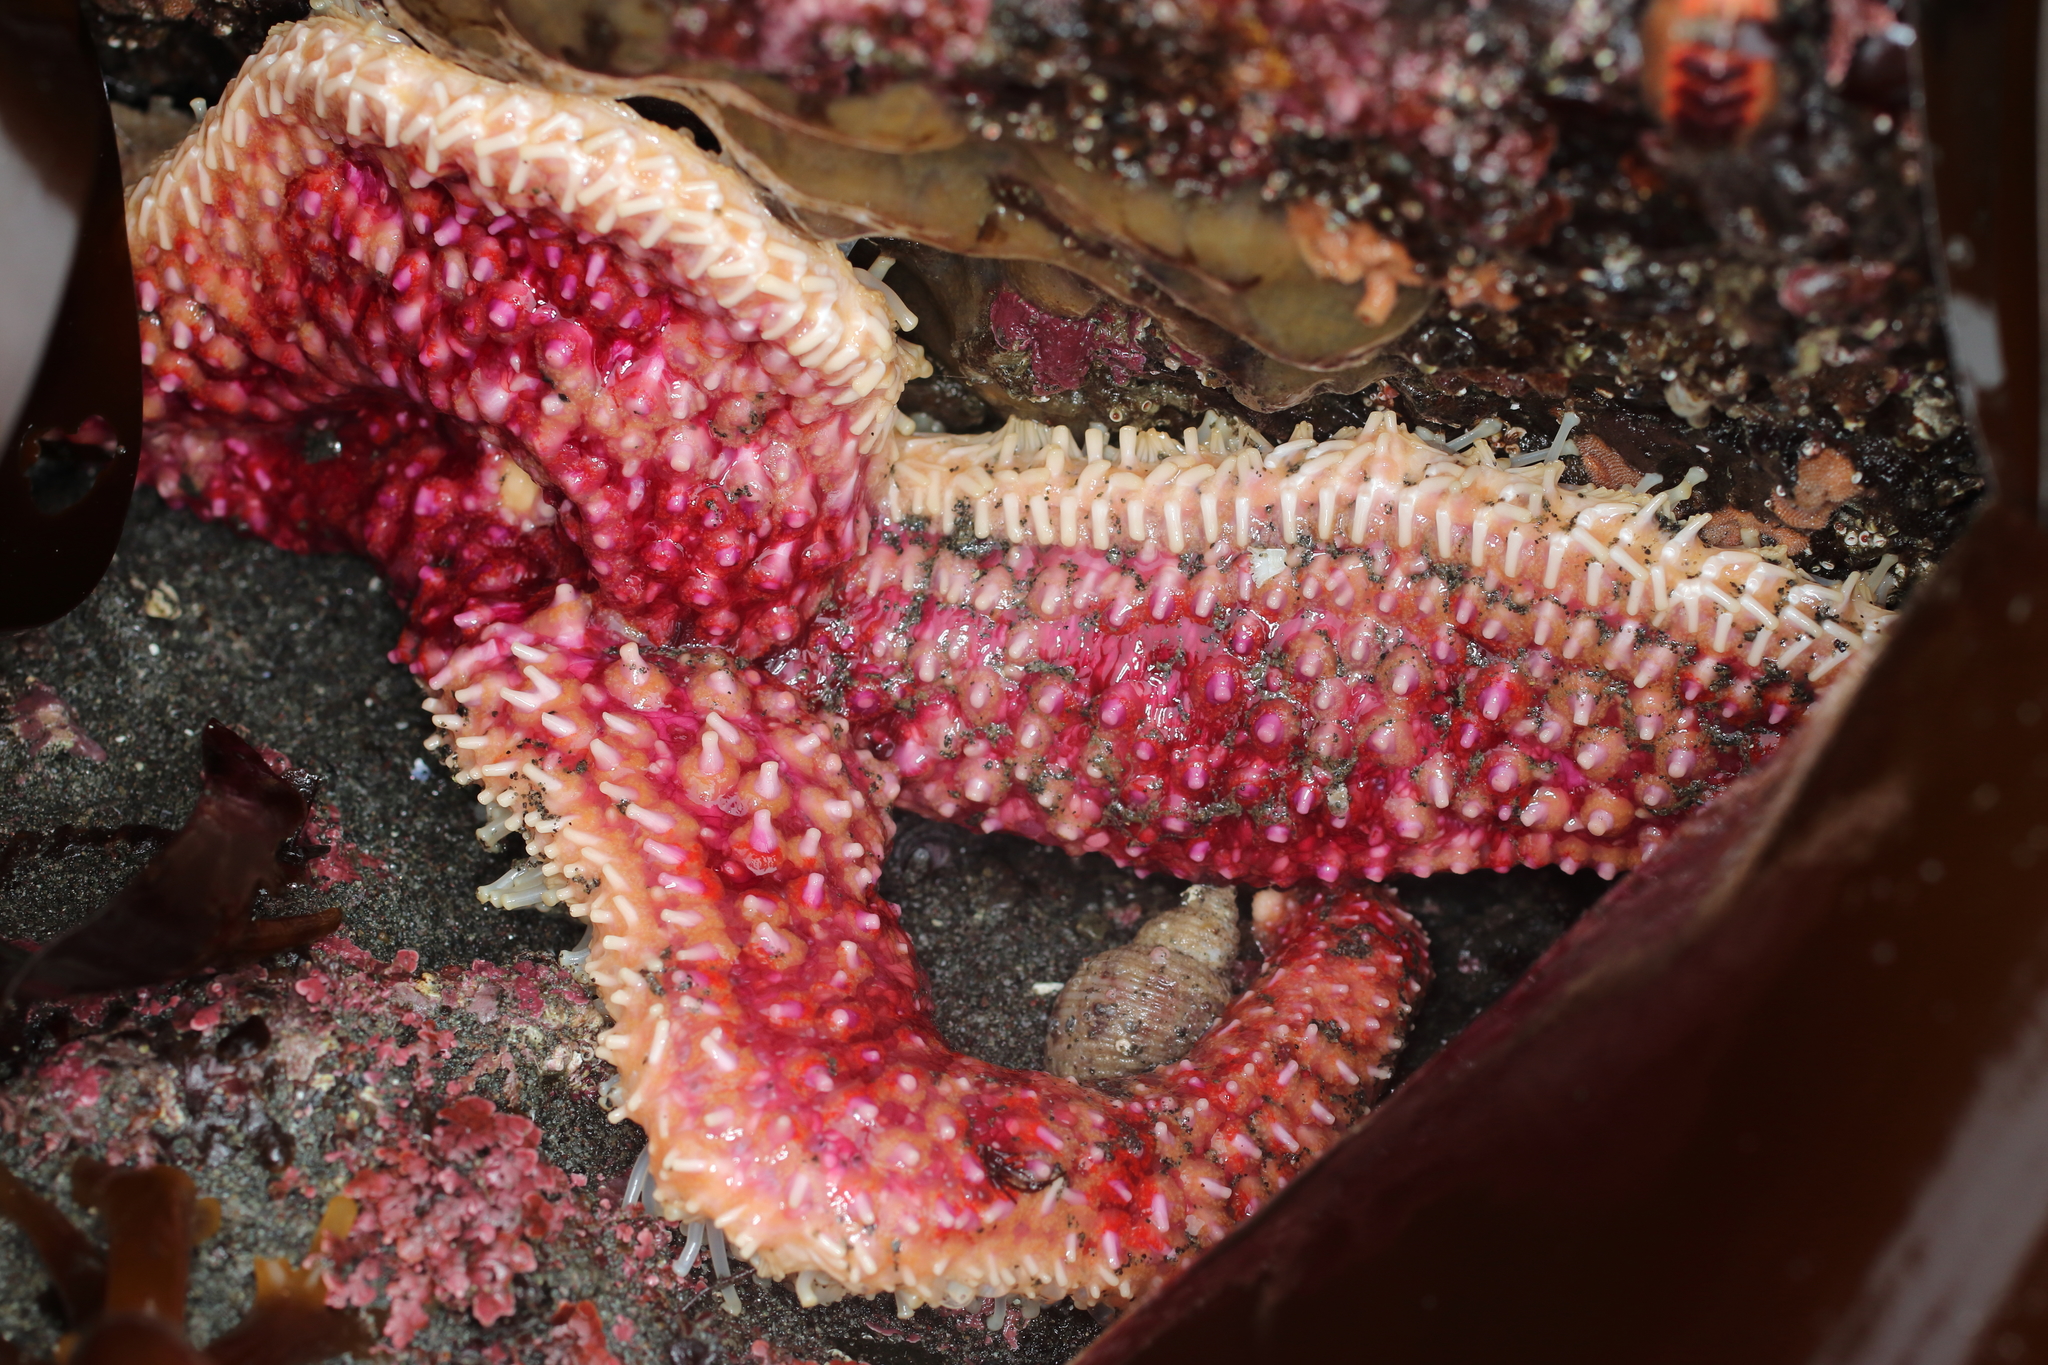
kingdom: Animalia
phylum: Echinodermata
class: Asteroidea
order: Forcipulatida
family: Asteriidae
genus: Orthasterias
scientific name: Orthasterias koehleri
